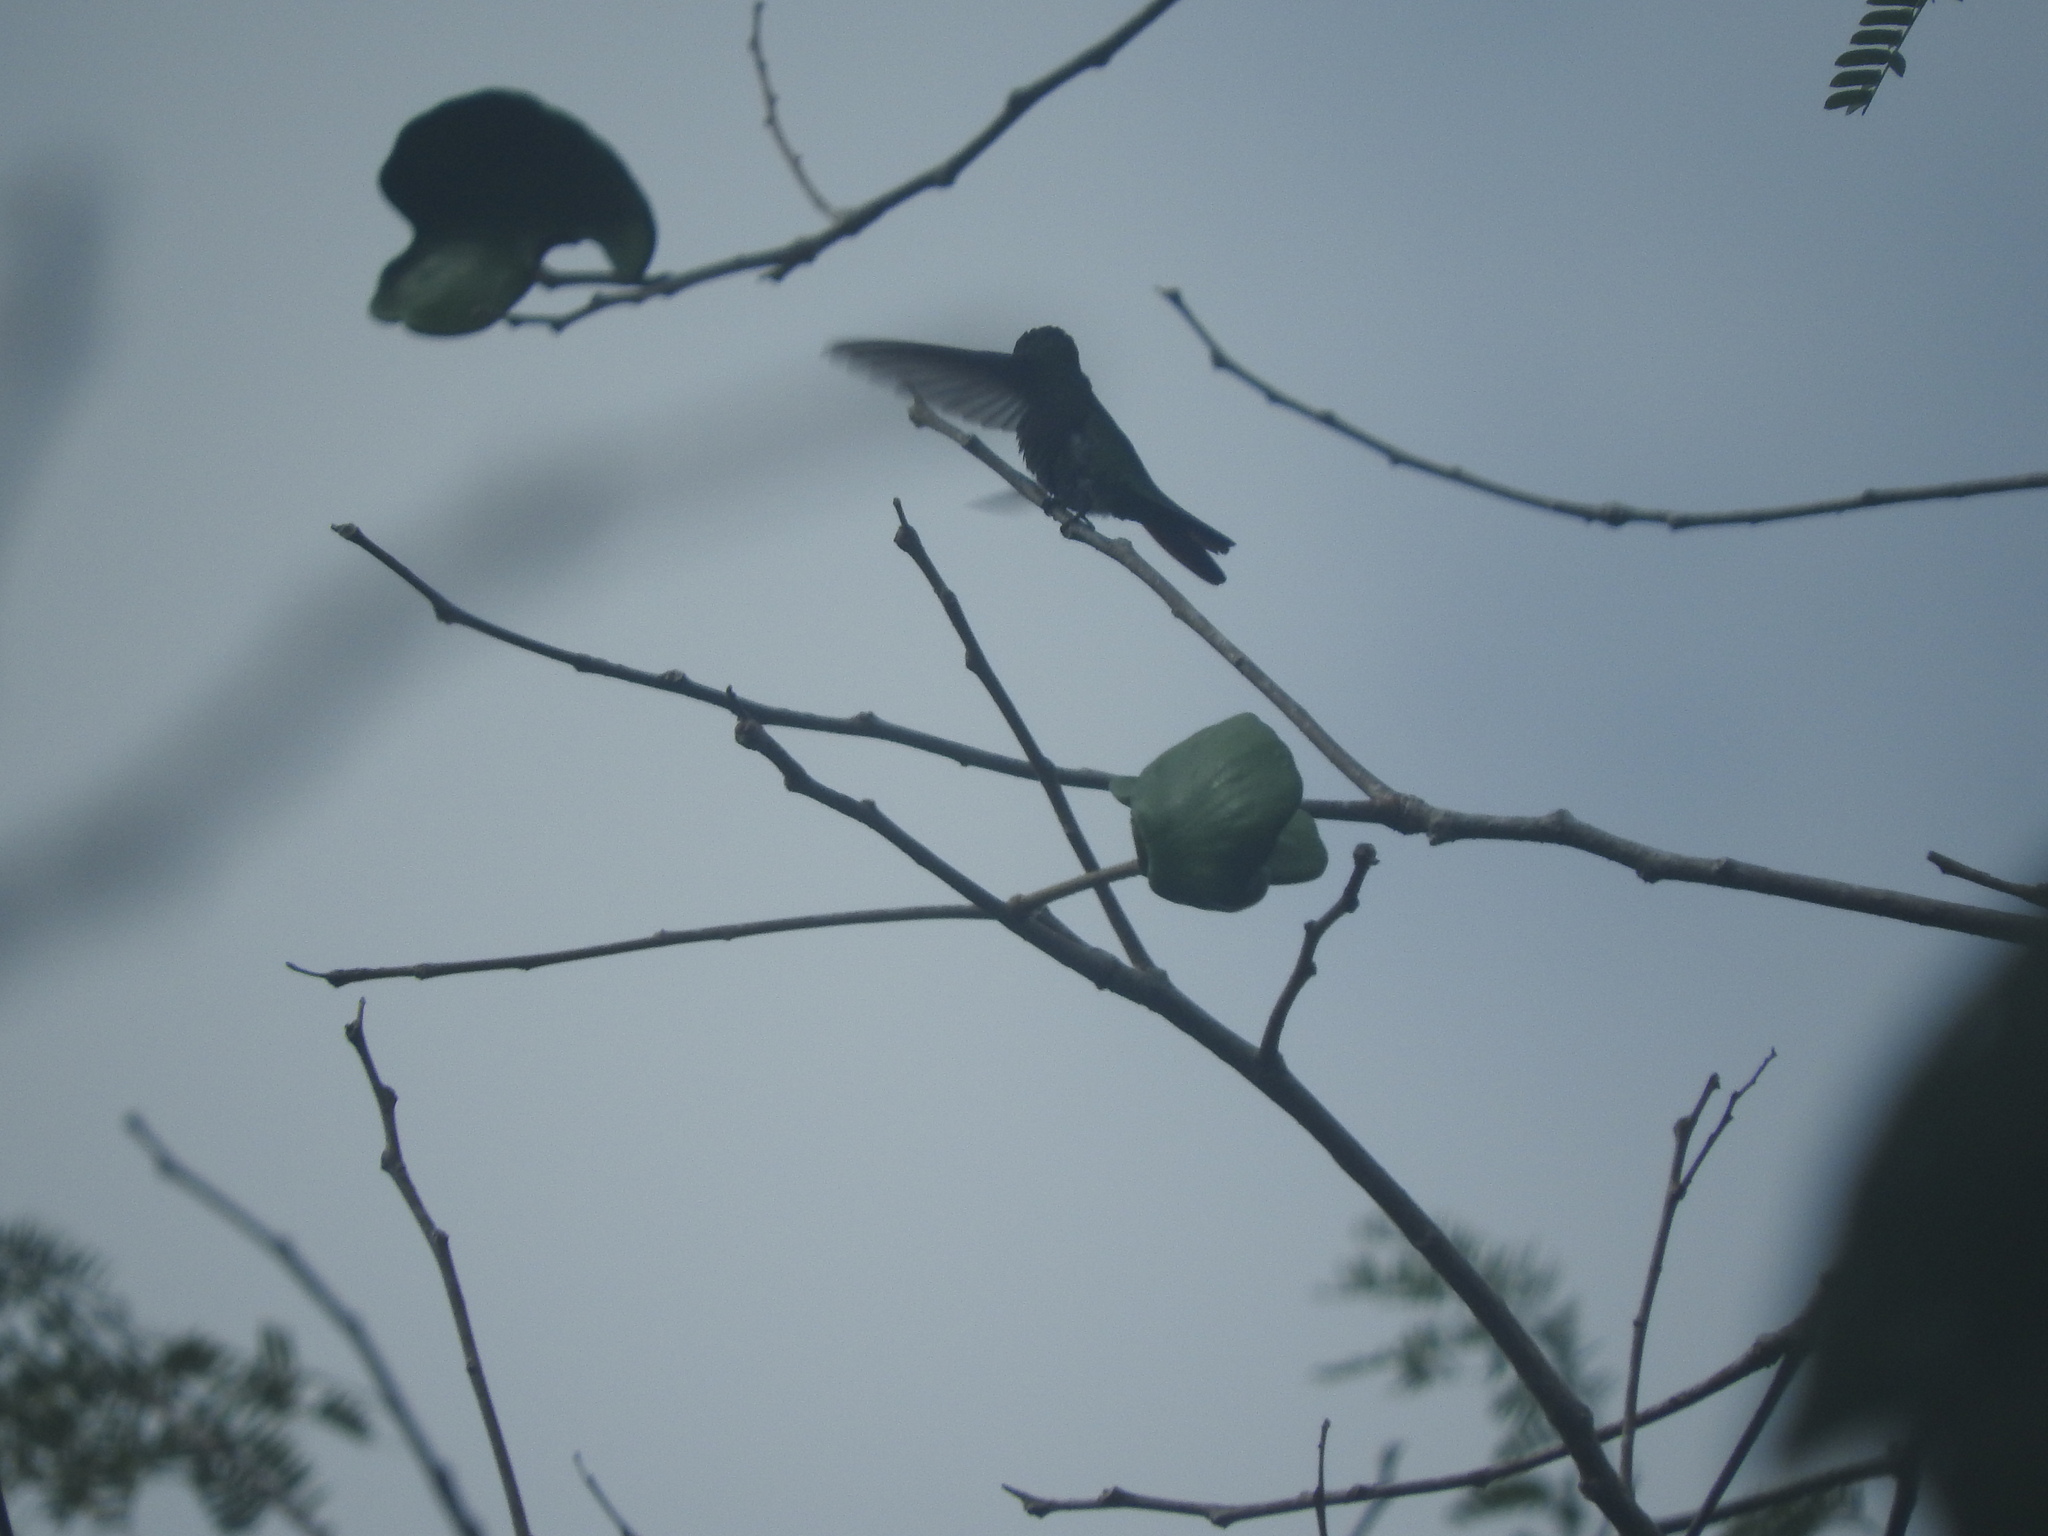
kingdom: Animalia
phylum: Chordata
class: Aves
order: Apodiformes
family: Trochilidae
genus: Cynanthus
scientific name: Cynanthus canivetii
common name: Canivet's emerald
